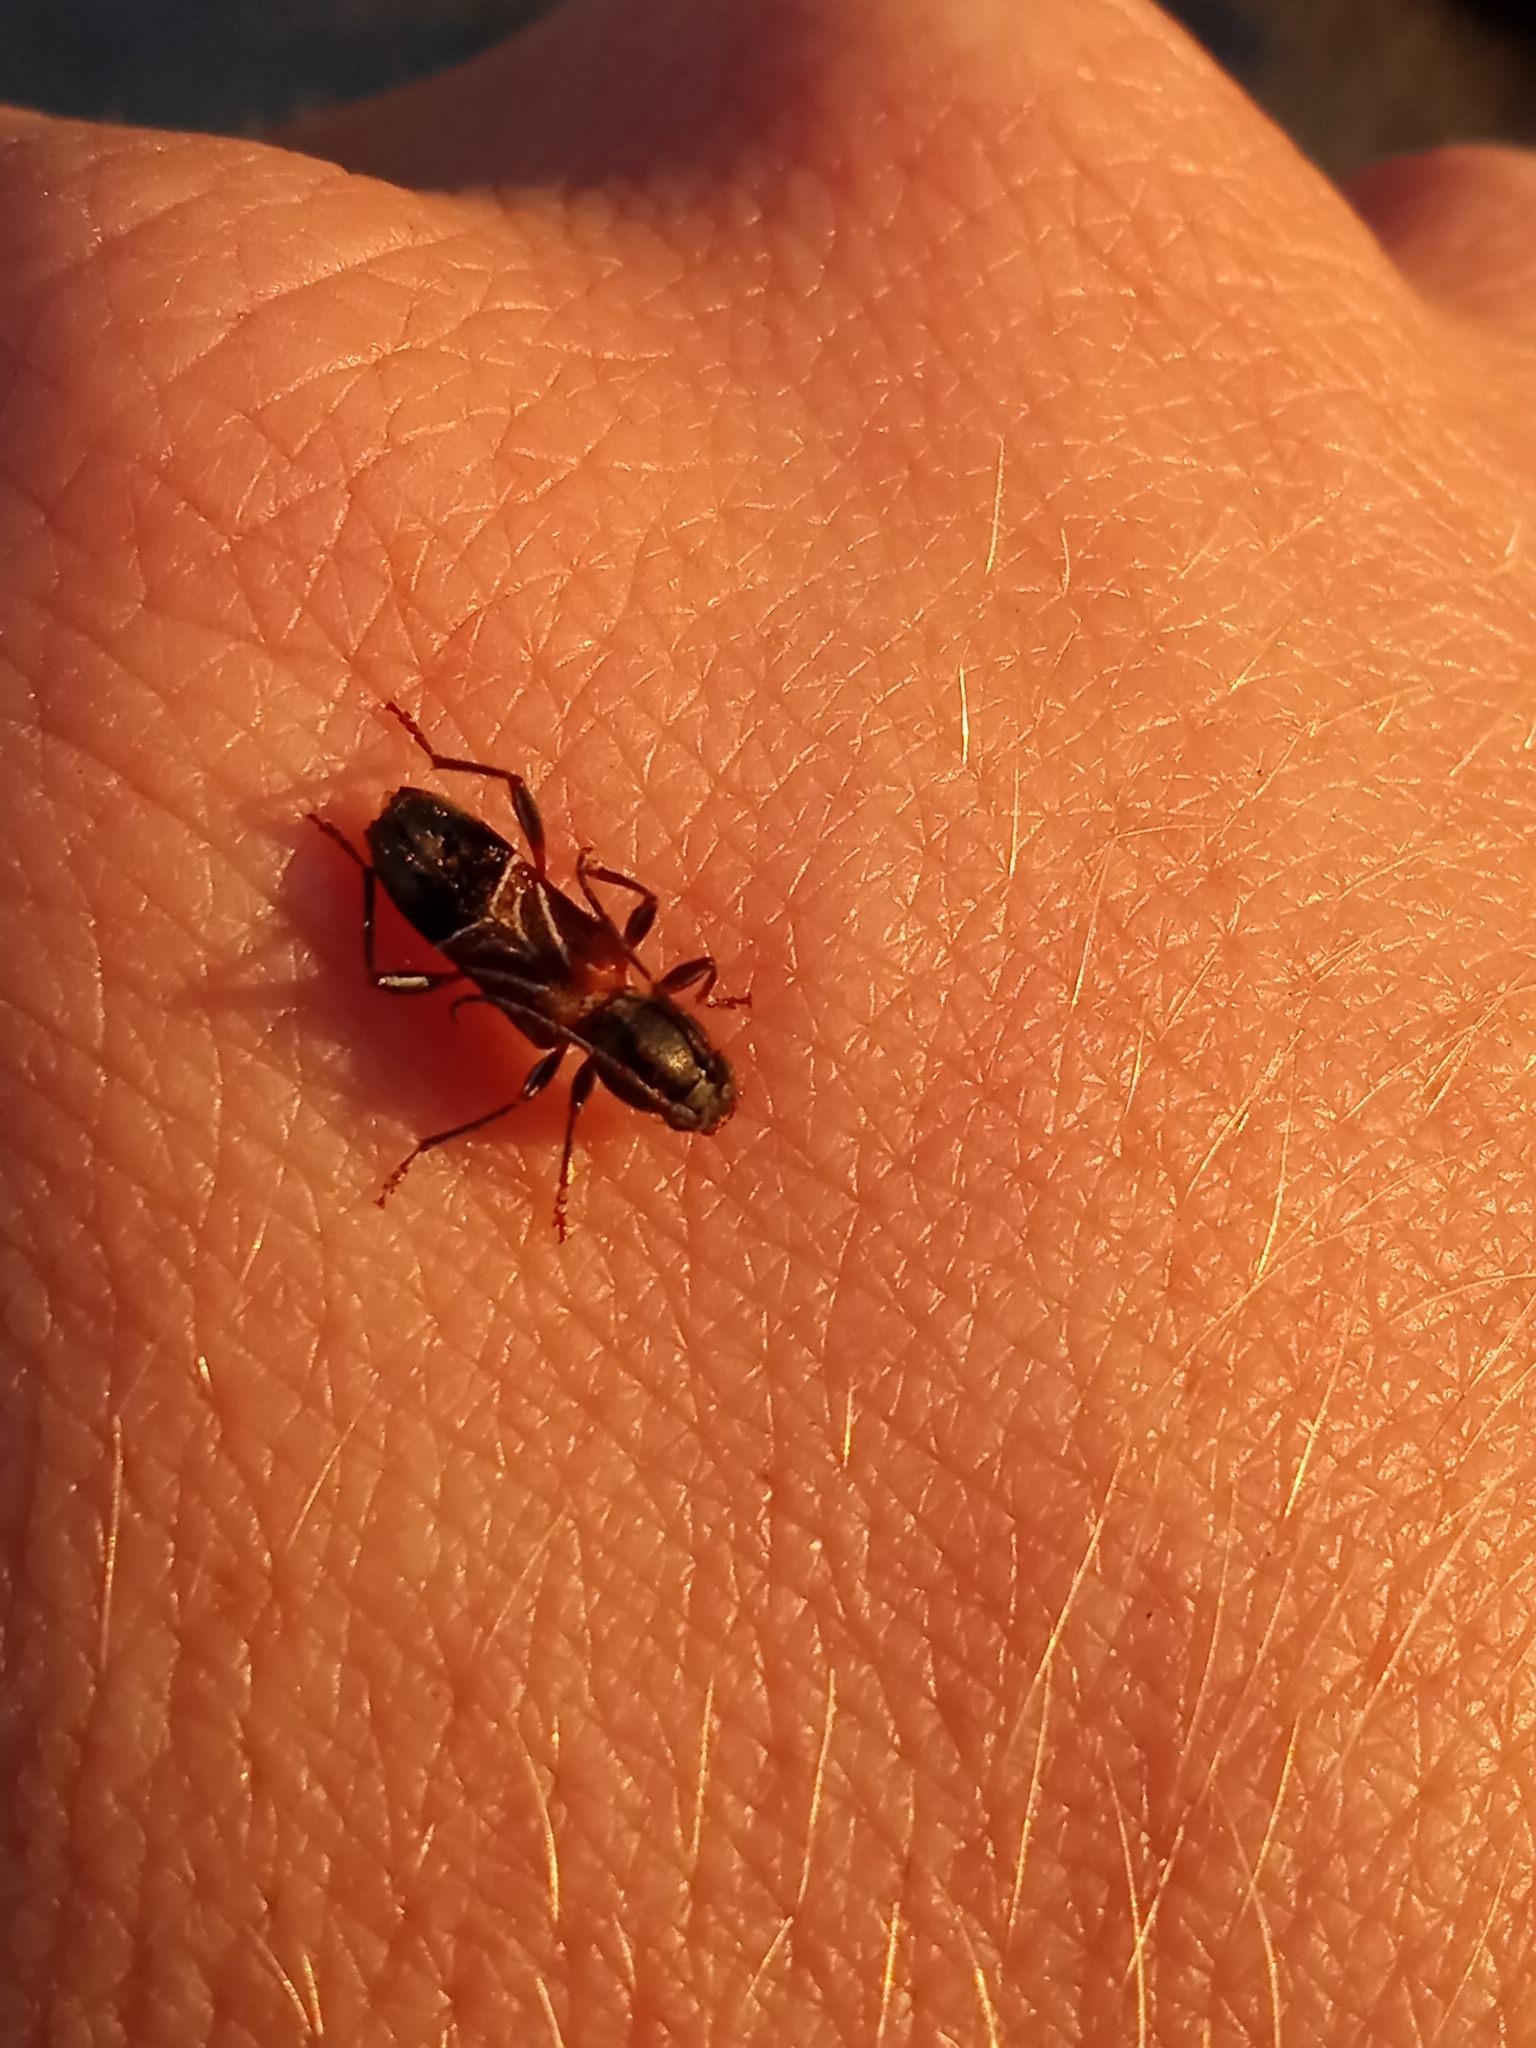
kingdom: Animalia
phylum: Arthropoda
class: Insecta
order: Coleoptera
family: Cerambycidae
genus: Cyrtophorus
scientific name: Cyrtophorus verrucosus
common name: Ant-like longhorn beetle
